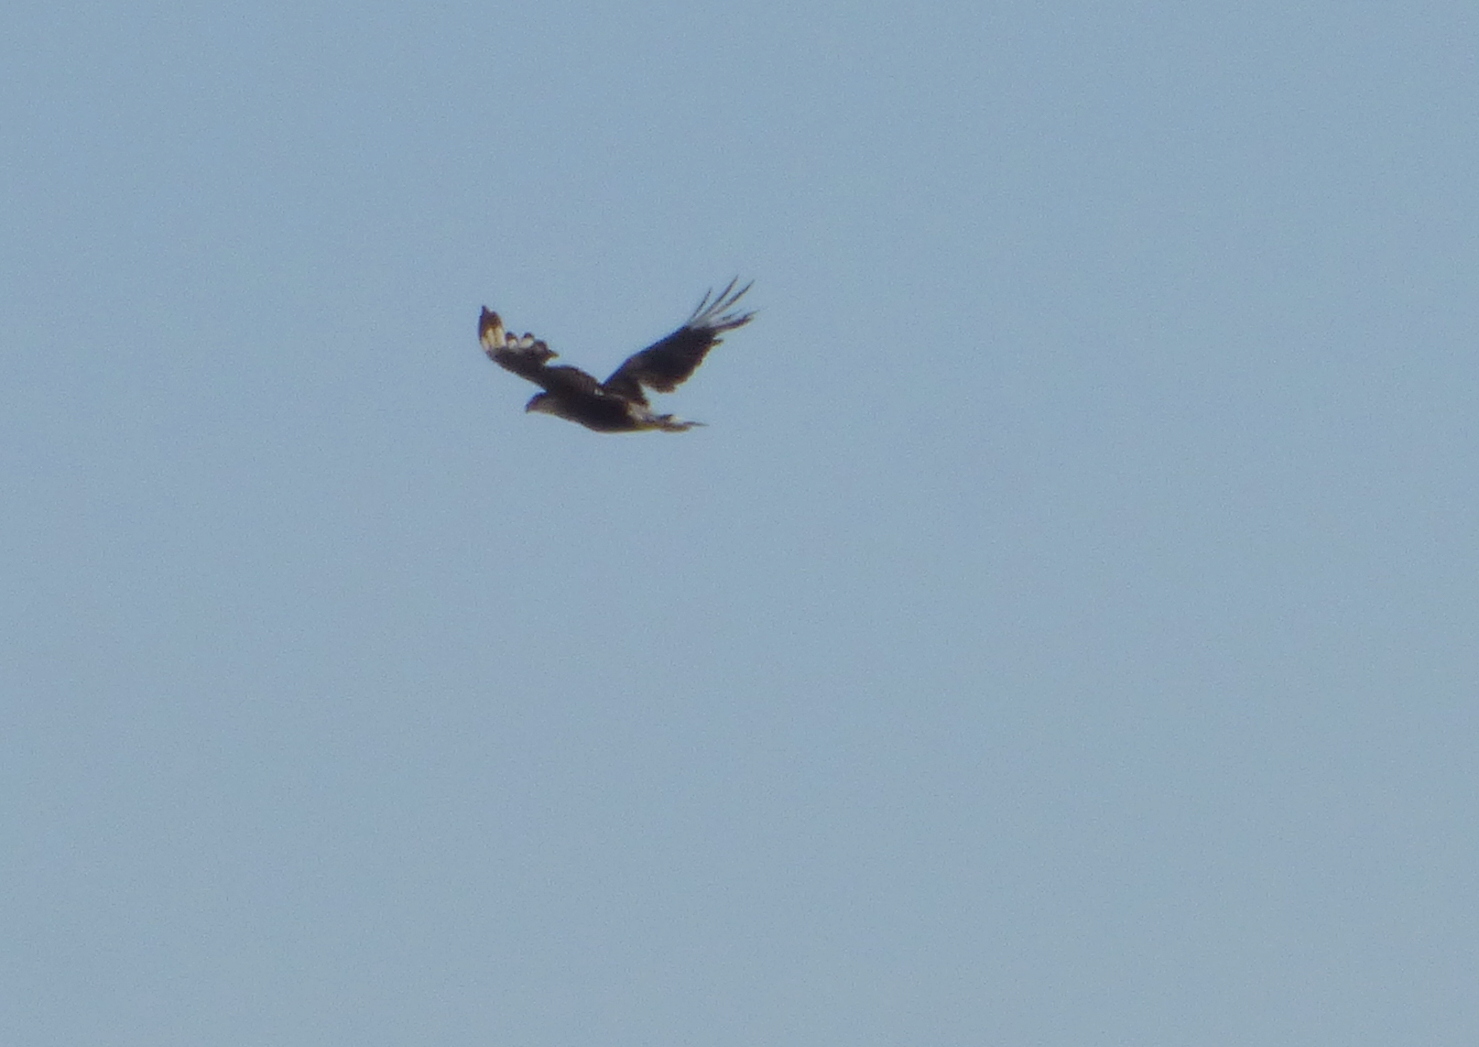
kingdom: Animalia
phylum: Chordata
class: Aves
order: Falconiformes
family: Falconidae
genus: Caracara
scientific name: Caracara plancus
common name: Southern caracara
